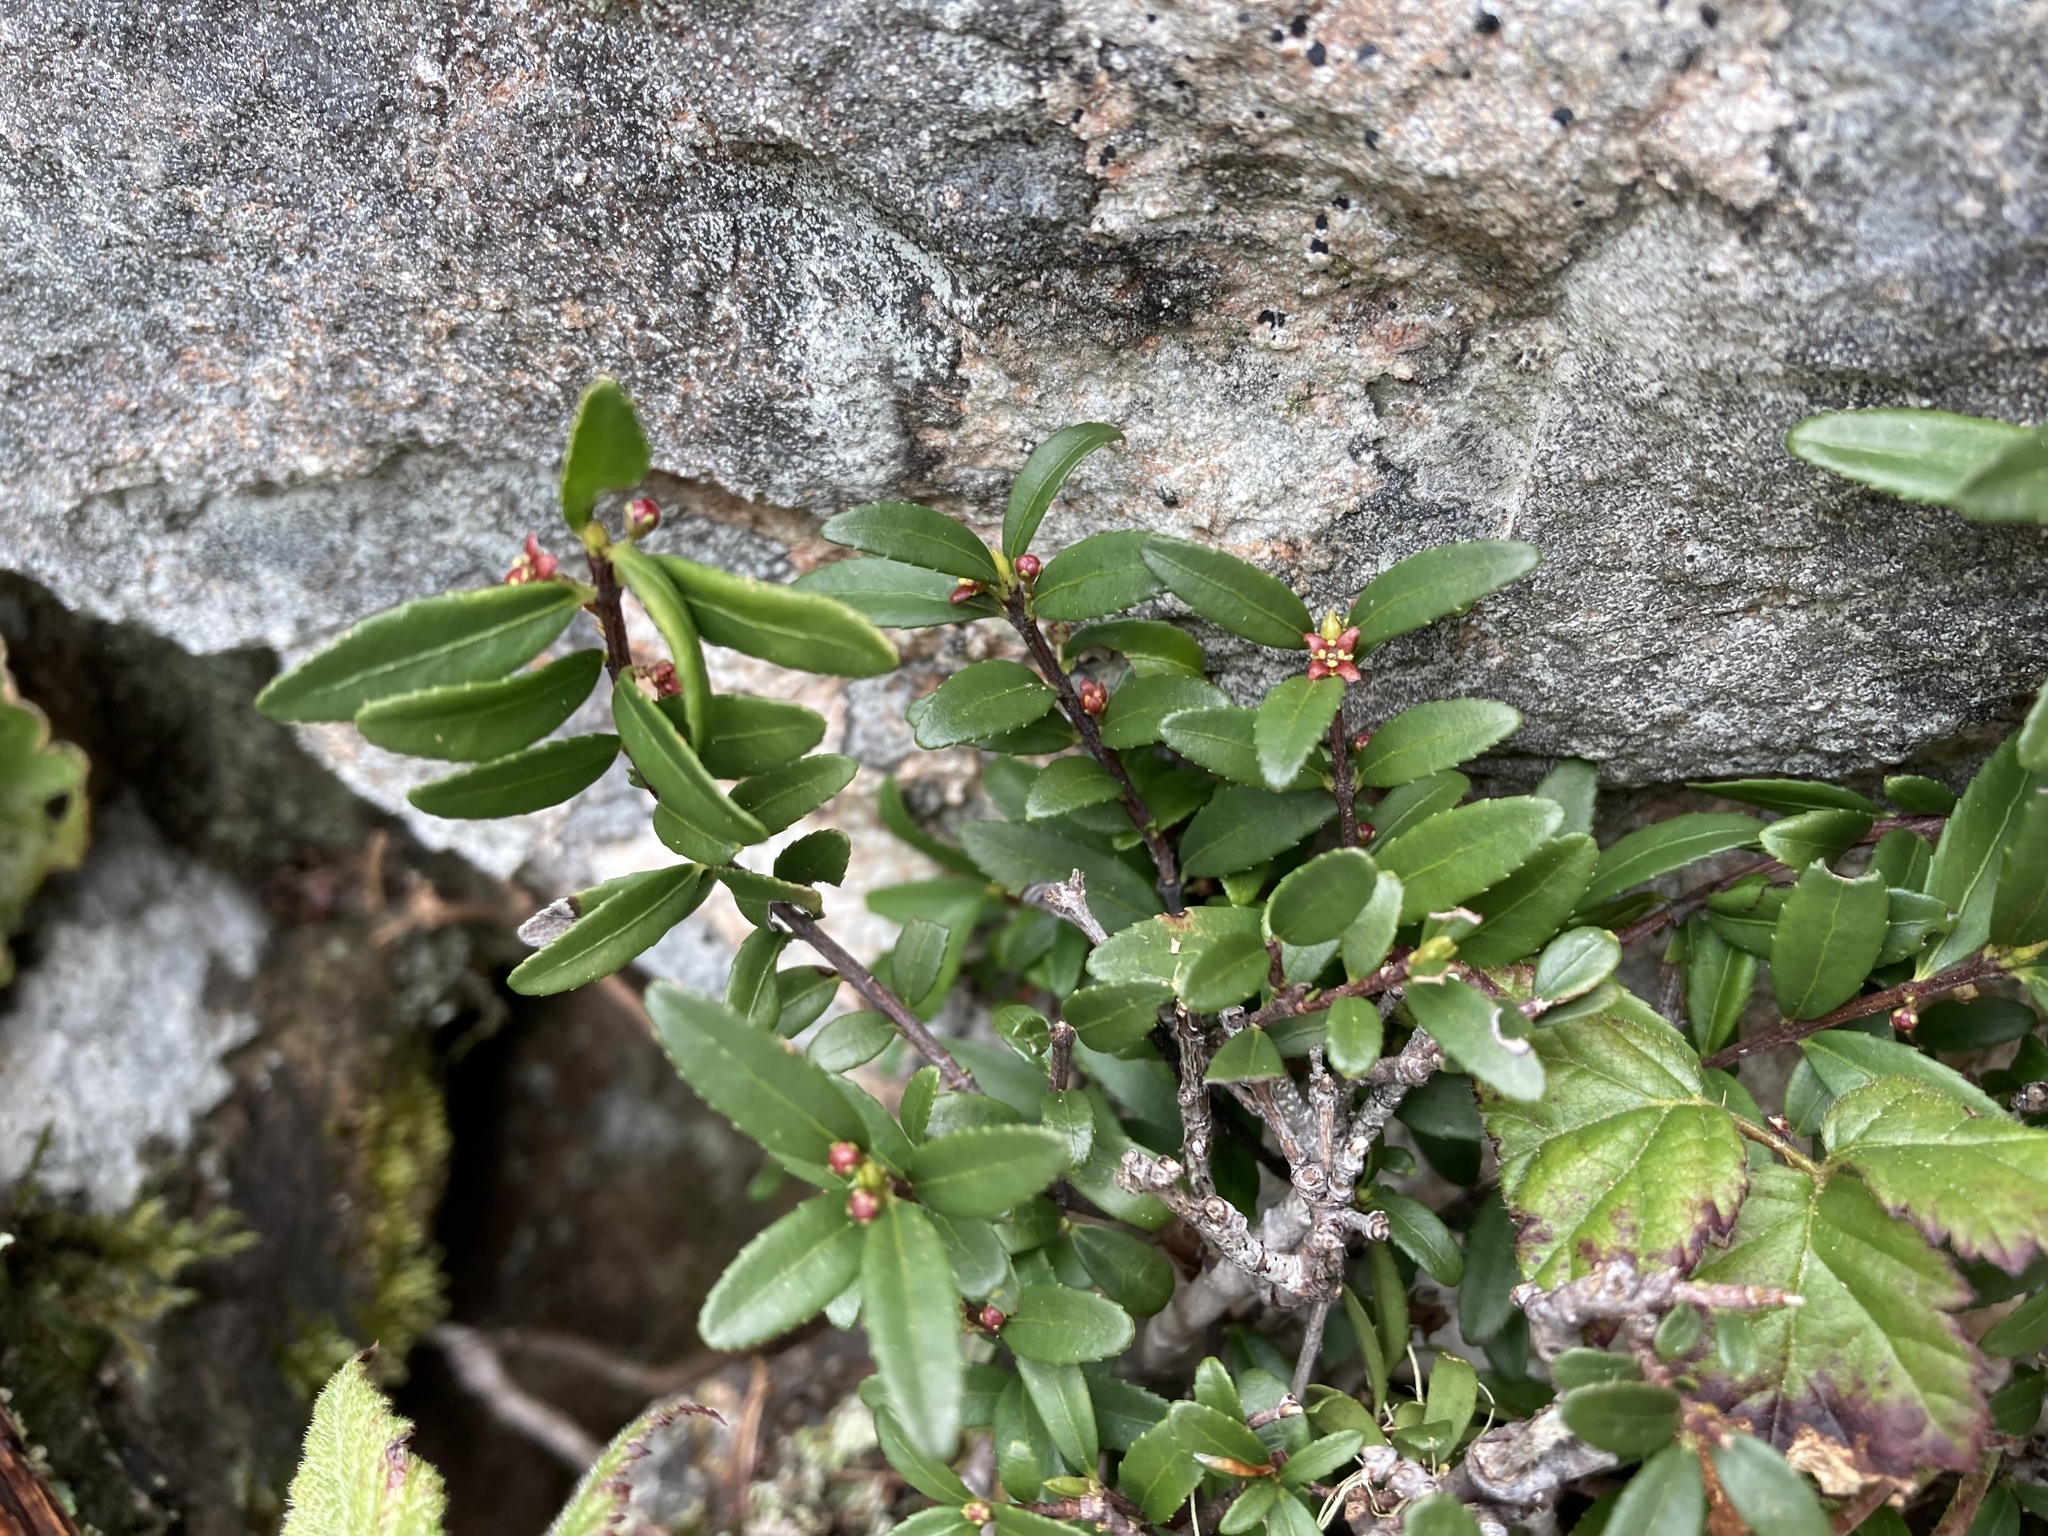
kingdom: Plantae
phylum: Tracheophyta
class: Magnoliopsida
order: Celastrales
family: Celastraceae
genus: Paxistima
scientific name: Paxistima myrsinites
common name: Mountain-lover
